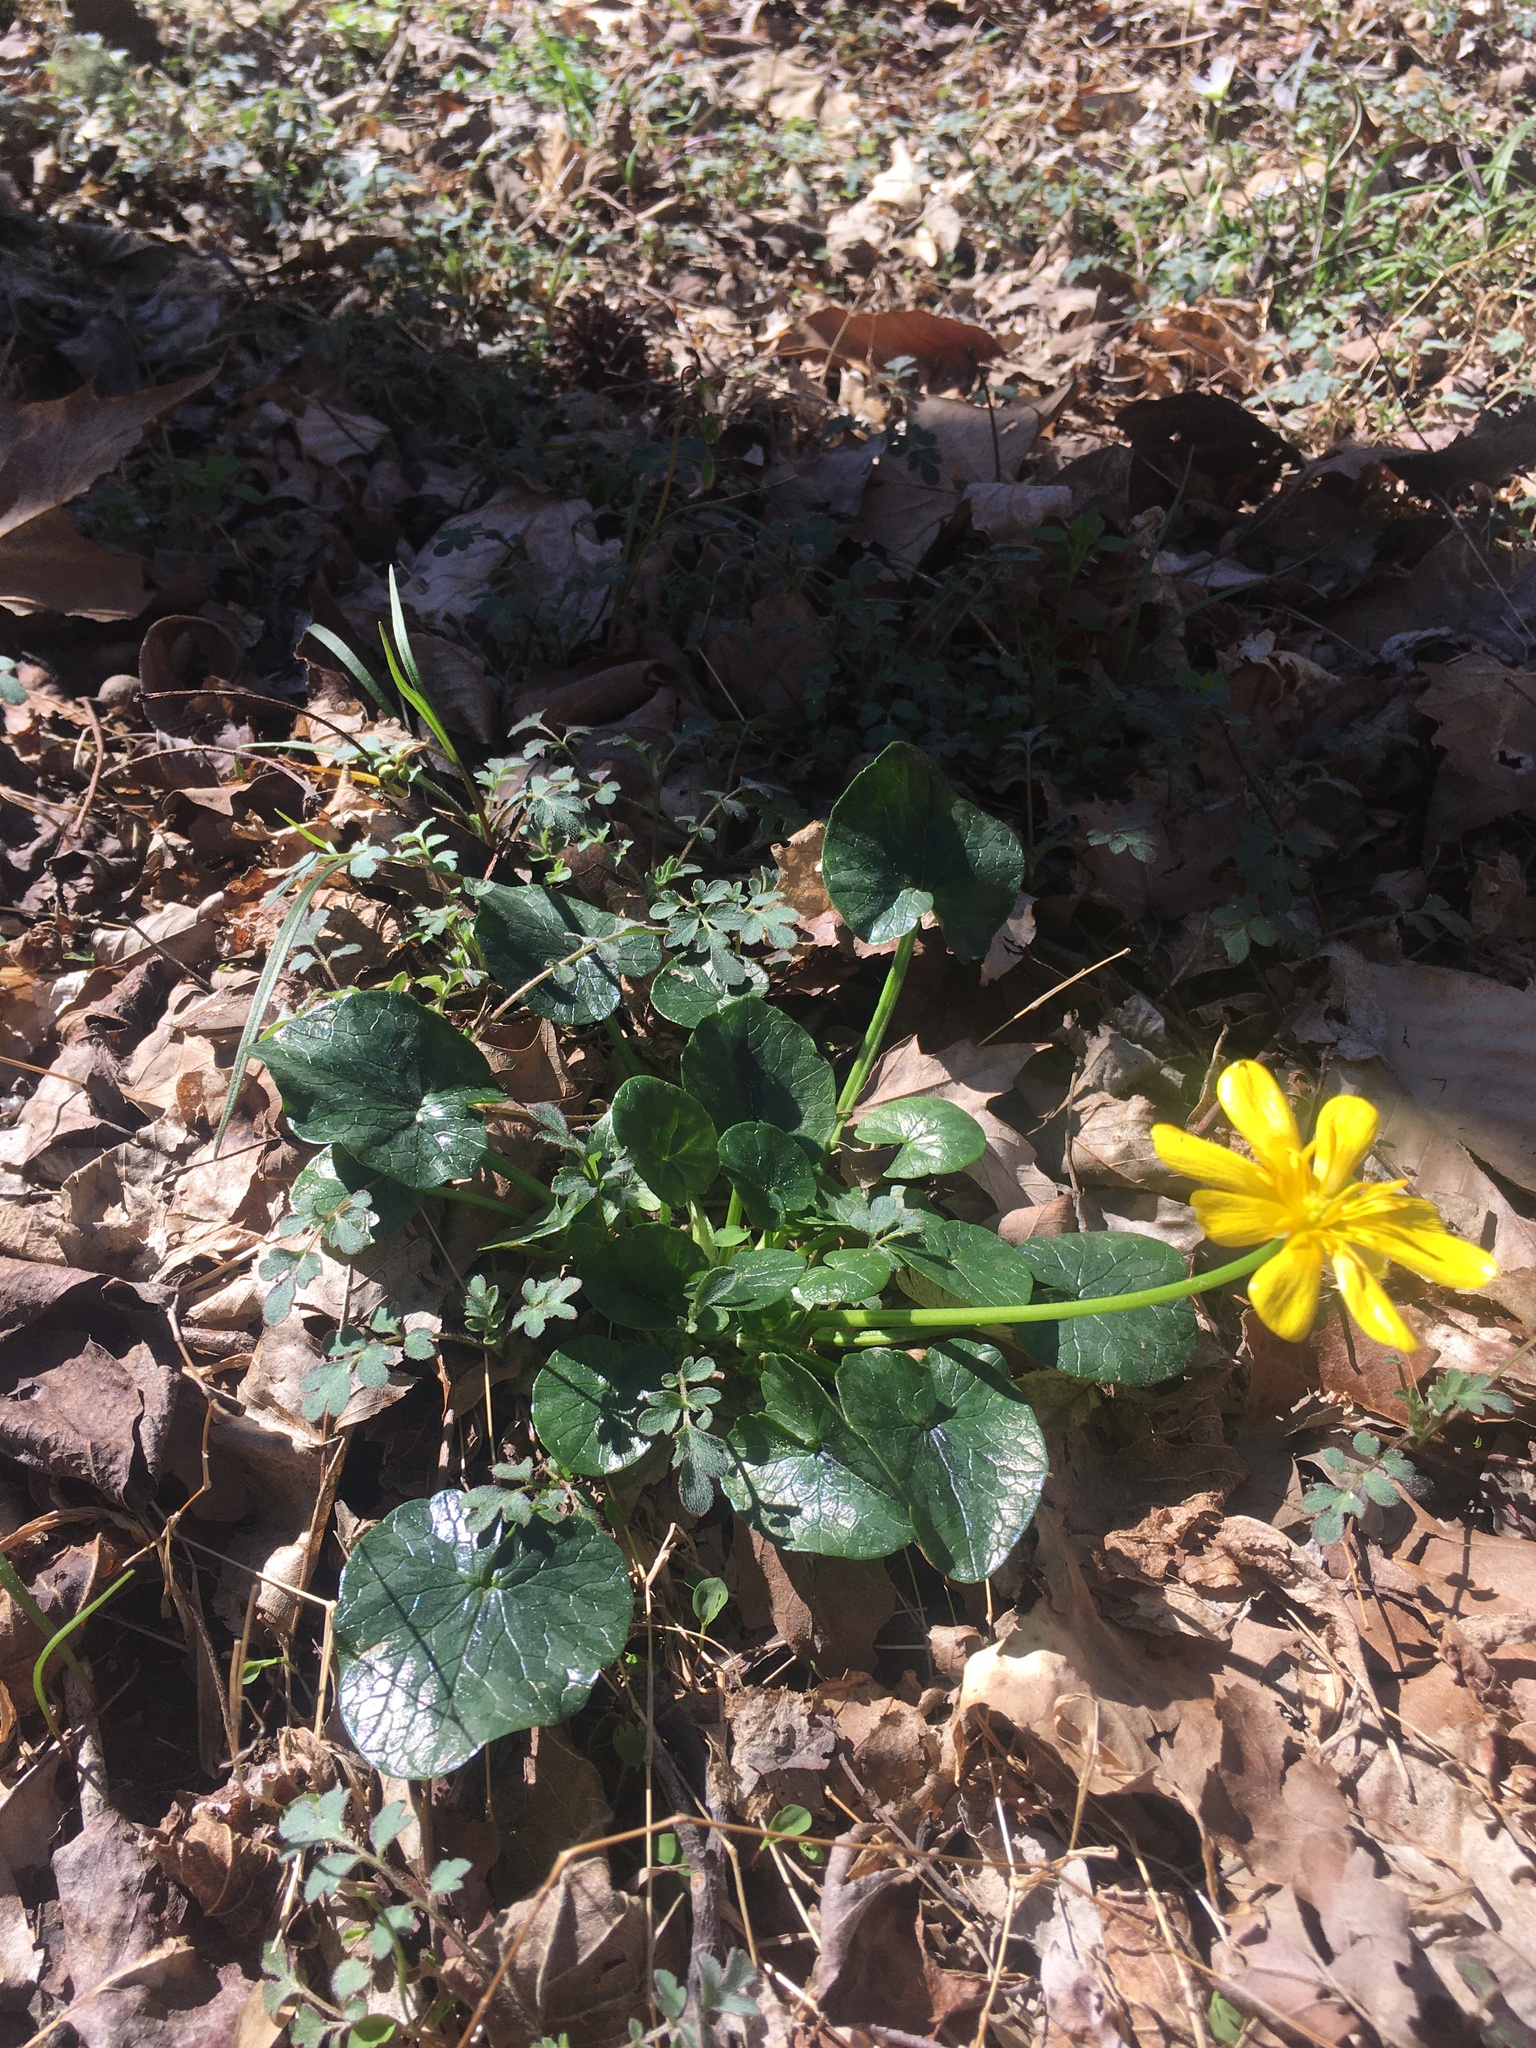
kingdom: Plantae
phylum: Tracheophyta
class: Magnoliopsida
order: Ranunculales
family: Ranunculaceae
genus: Ficaria
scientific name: Ficaria verna
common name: Lesser celandine
